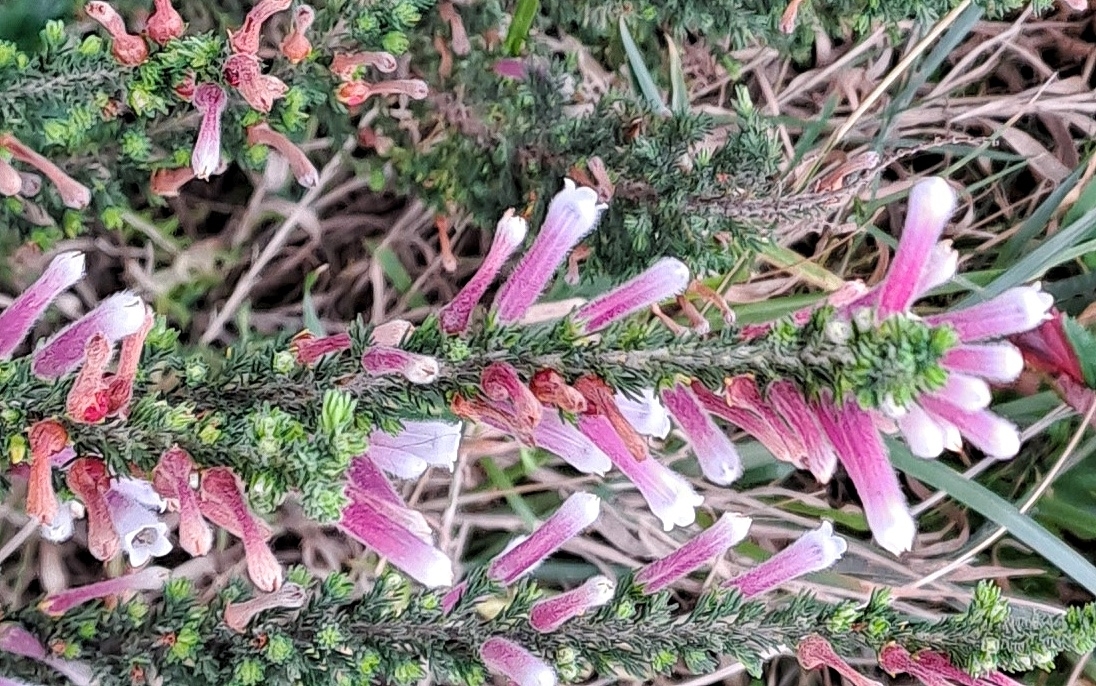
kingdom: Plantae
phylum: Tracheophyta
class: Magnoliopsida
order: Ericales
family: Ericaceae
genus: Erica
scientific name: Erica perspicua
